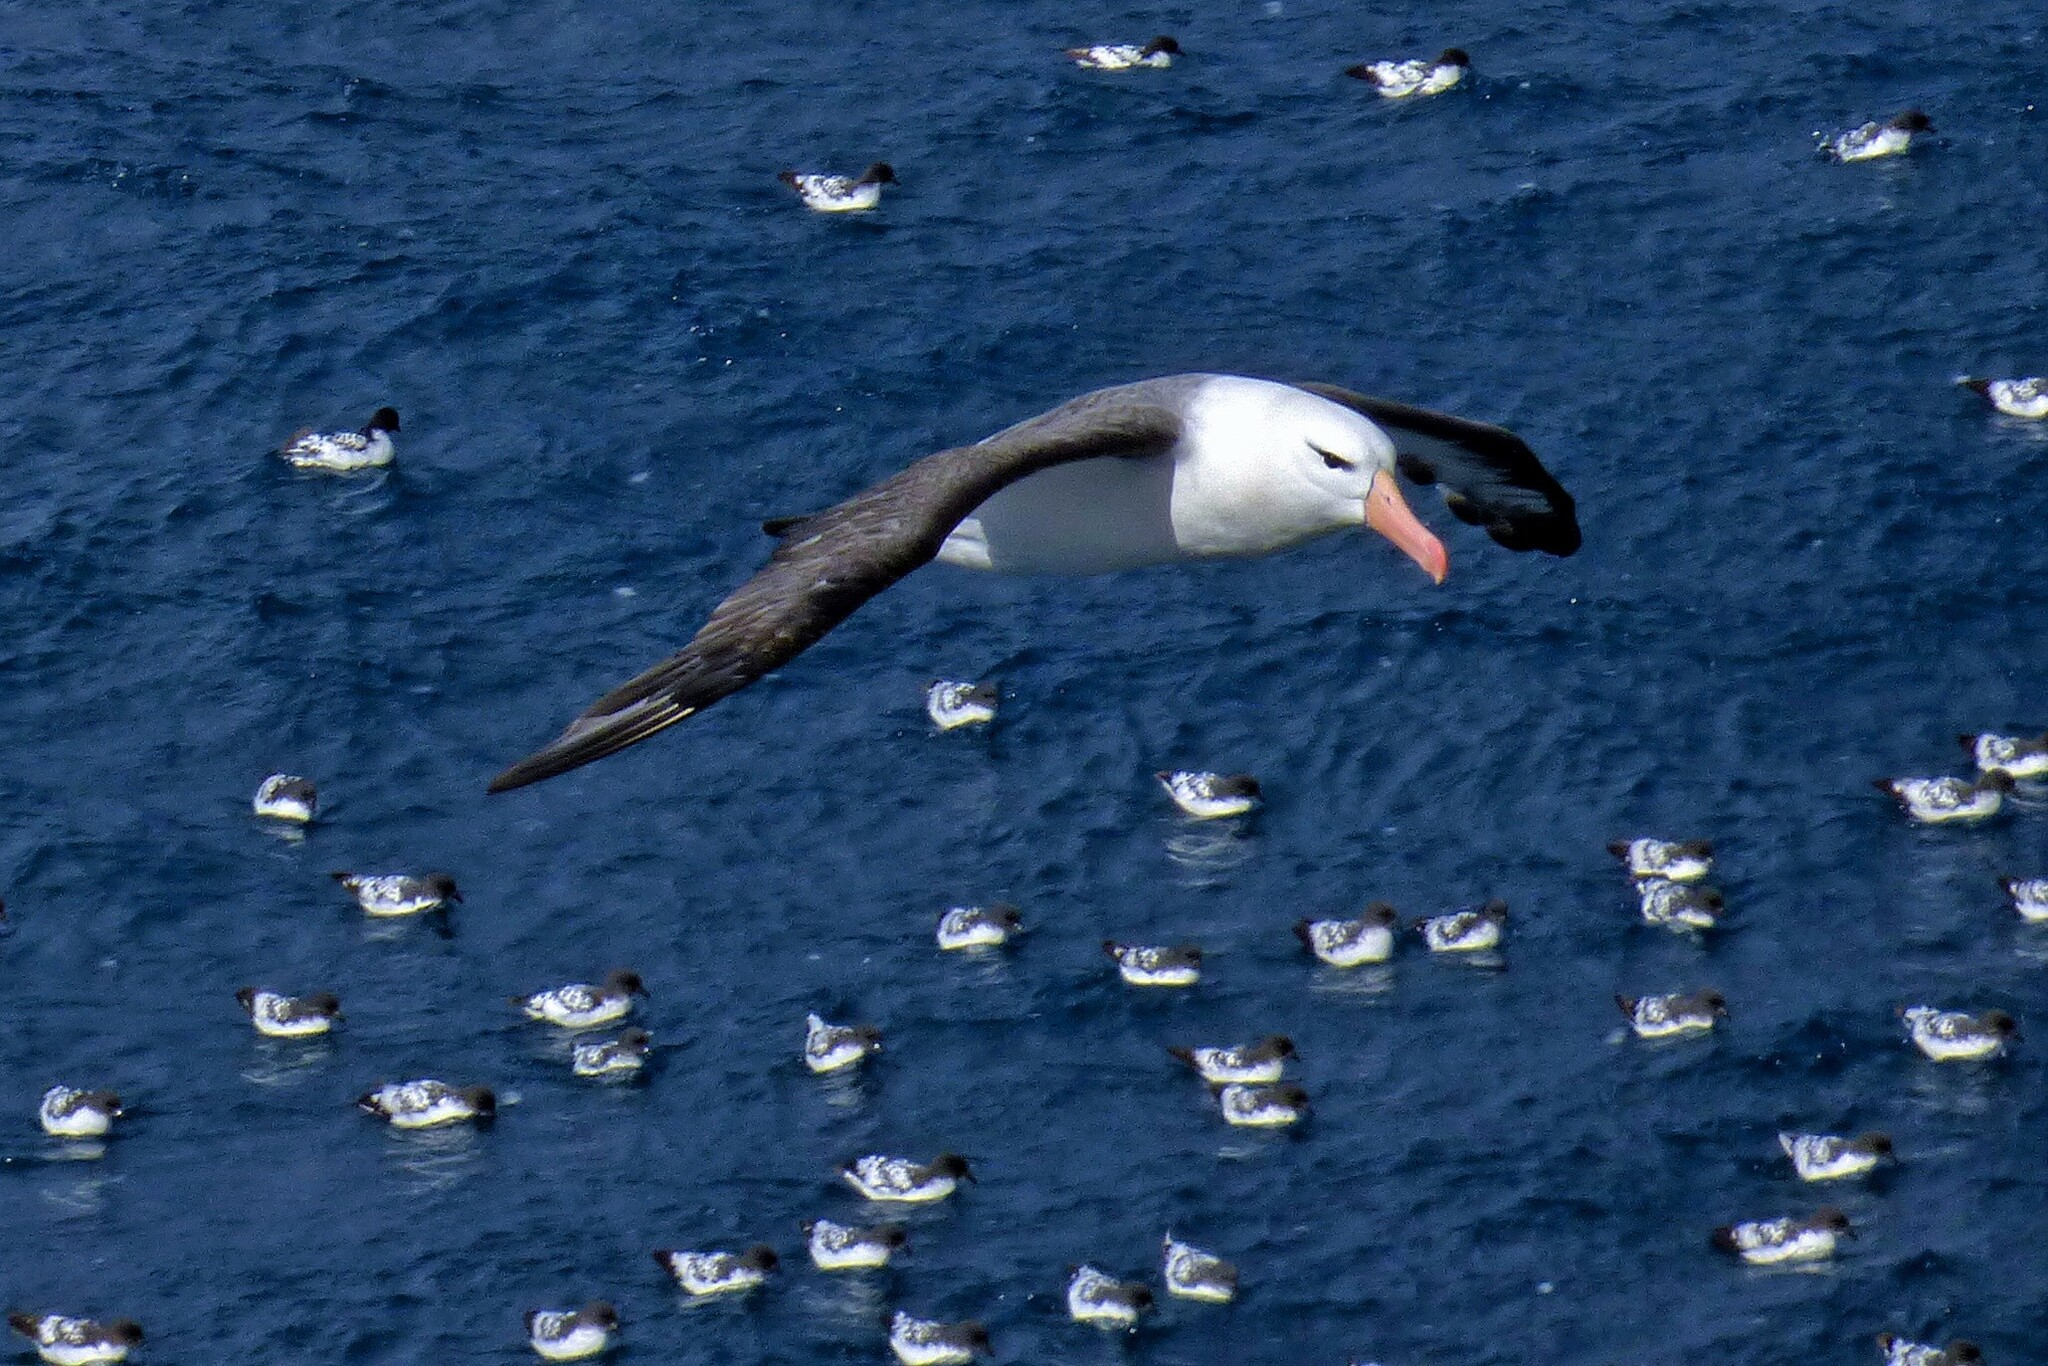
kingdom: Animalia
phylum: Chordata
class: Aves
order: Procellariiformes
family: Diomedeidae
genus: Thalassarche
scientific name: Thalassarche melanophris
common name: Black-browed albatross
